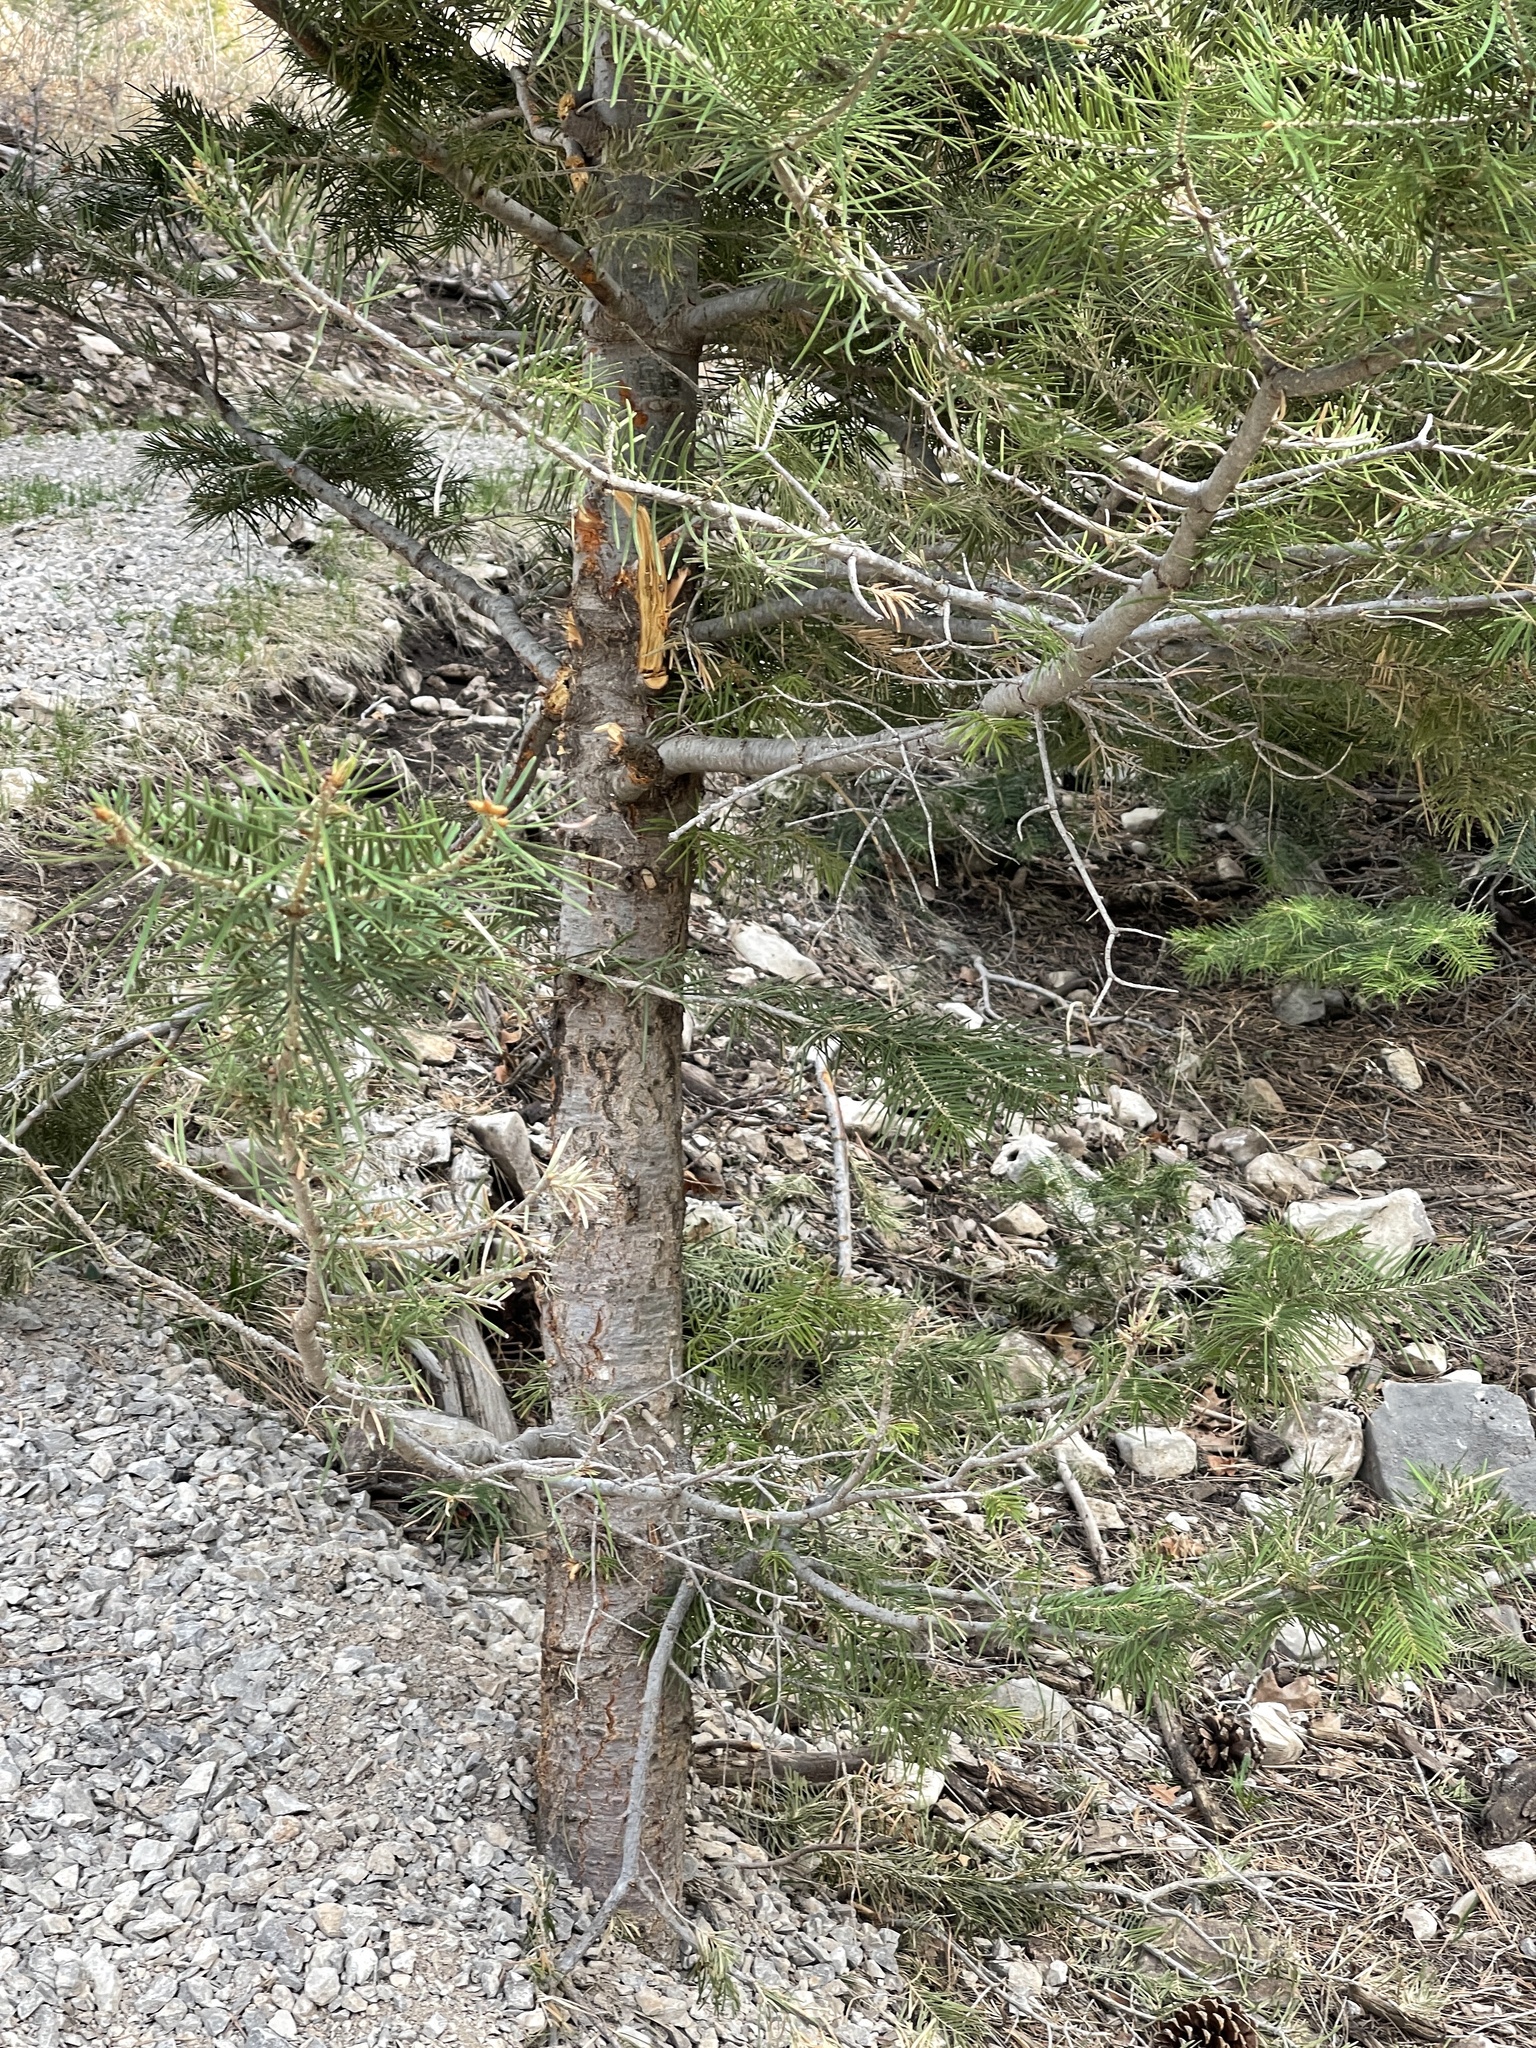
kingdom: Plantae
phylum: Tracheophyta
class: Pinopsida
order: Pinales
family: Pinaceae
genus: Abies
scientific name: Abies concolor
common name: Colorado fir
